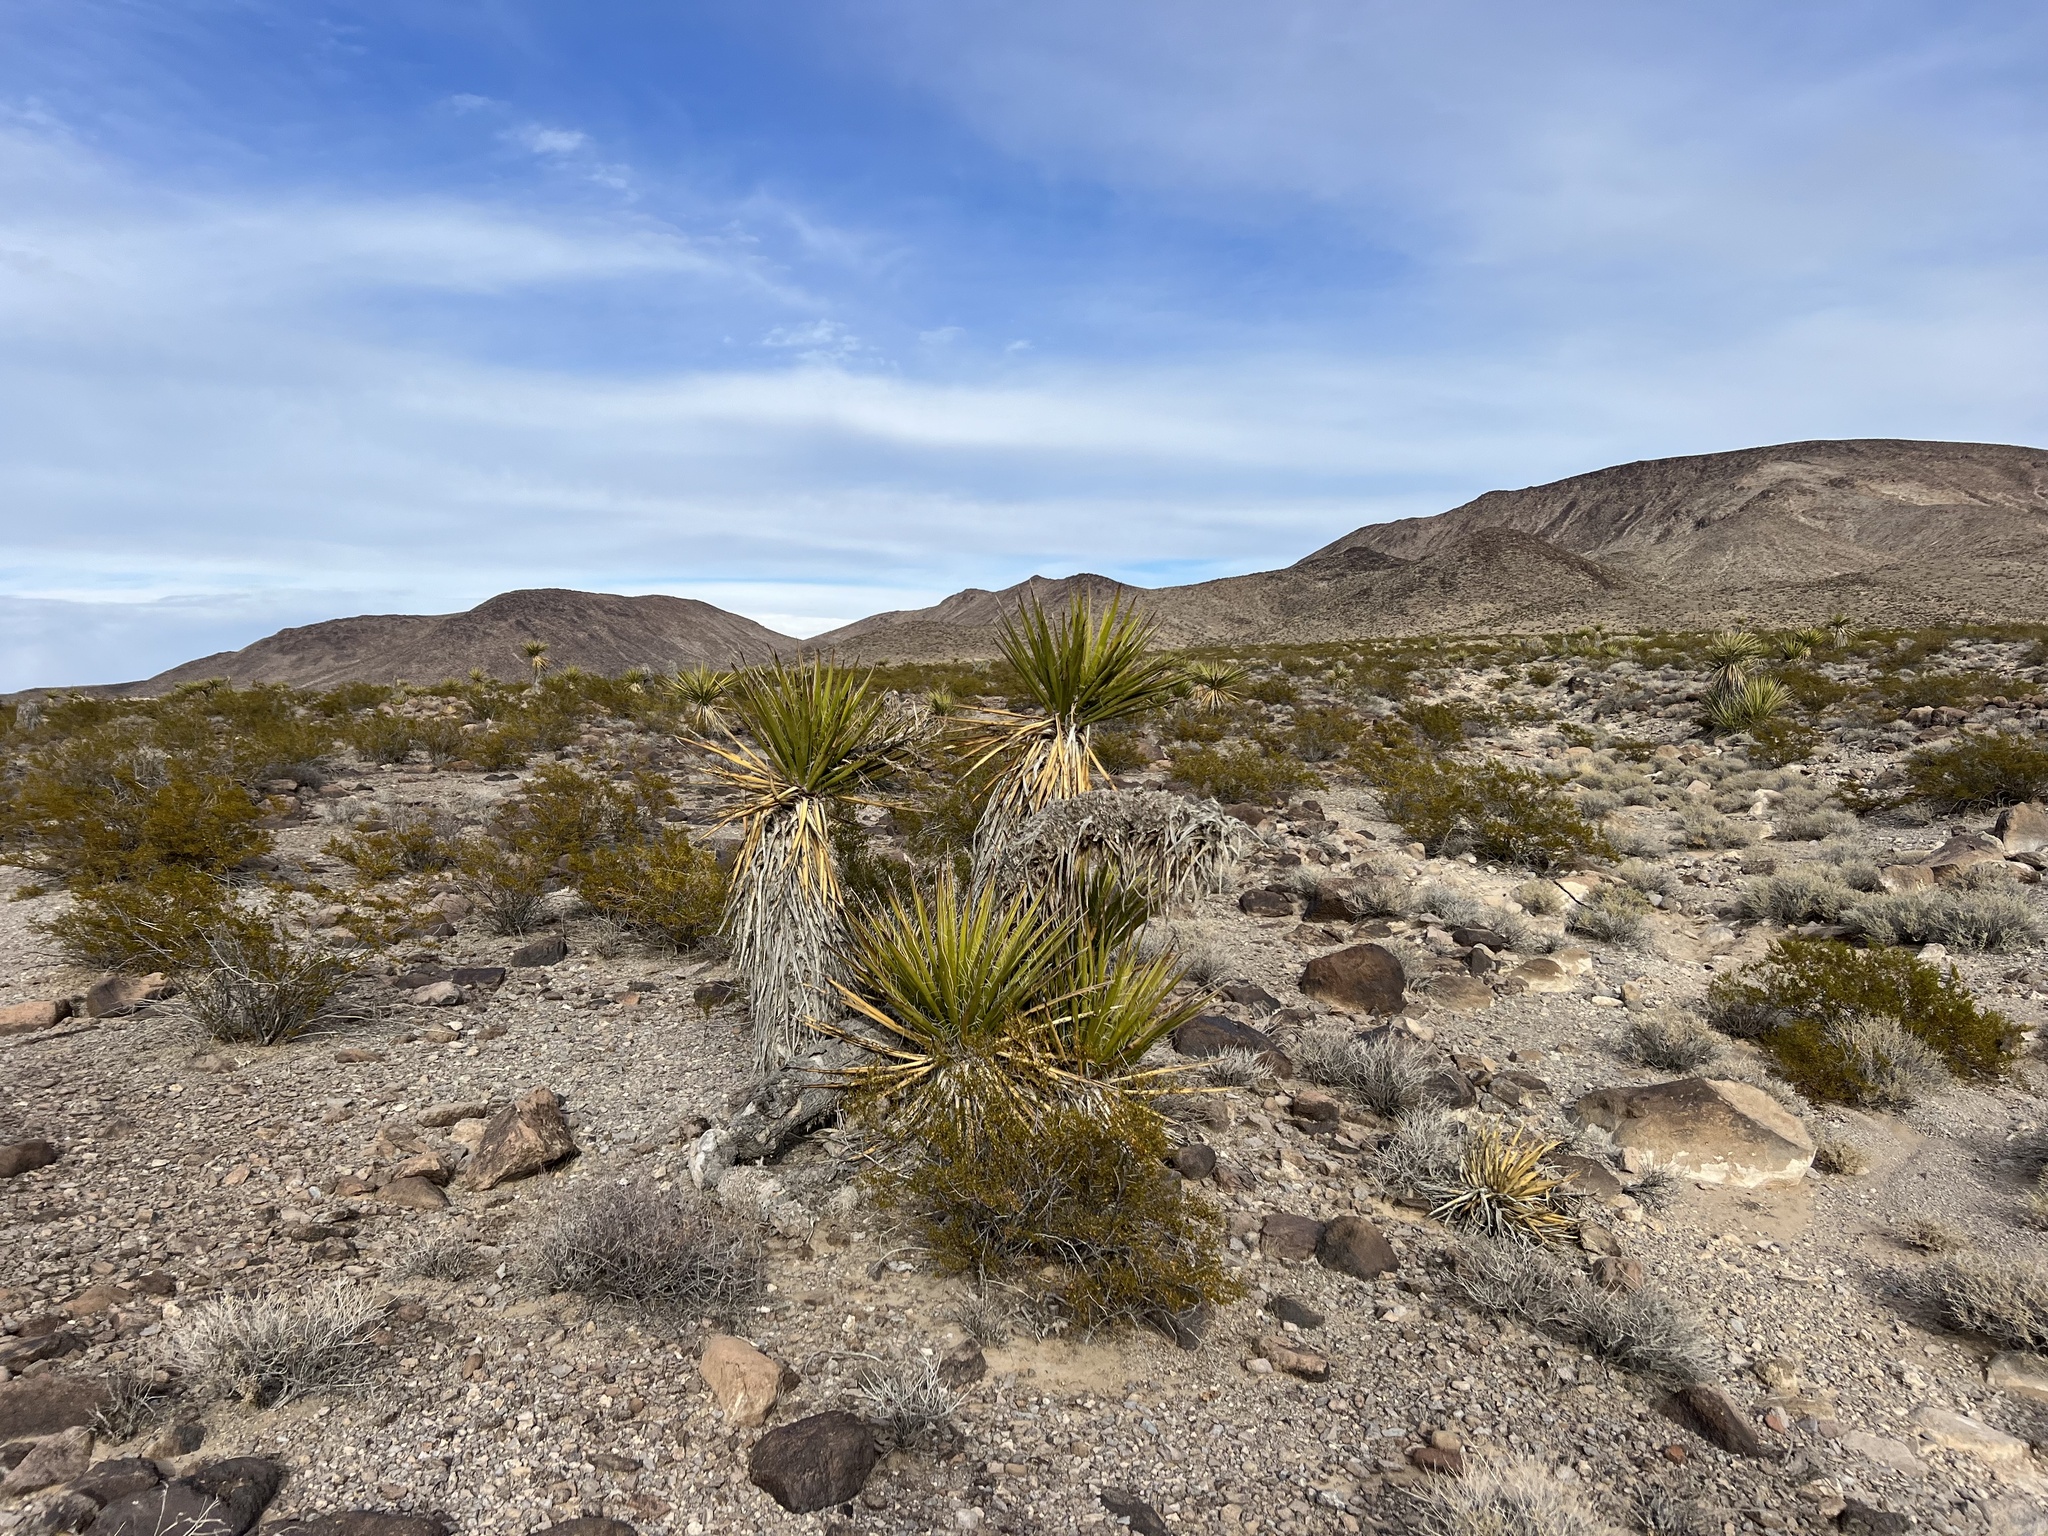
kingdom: Plantae
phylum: Tracheophyta
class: Liliopsida
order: Asparagales
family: Asparagaceae
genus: Yucca
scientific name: Yucca schidigera
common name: Mojave yucca
